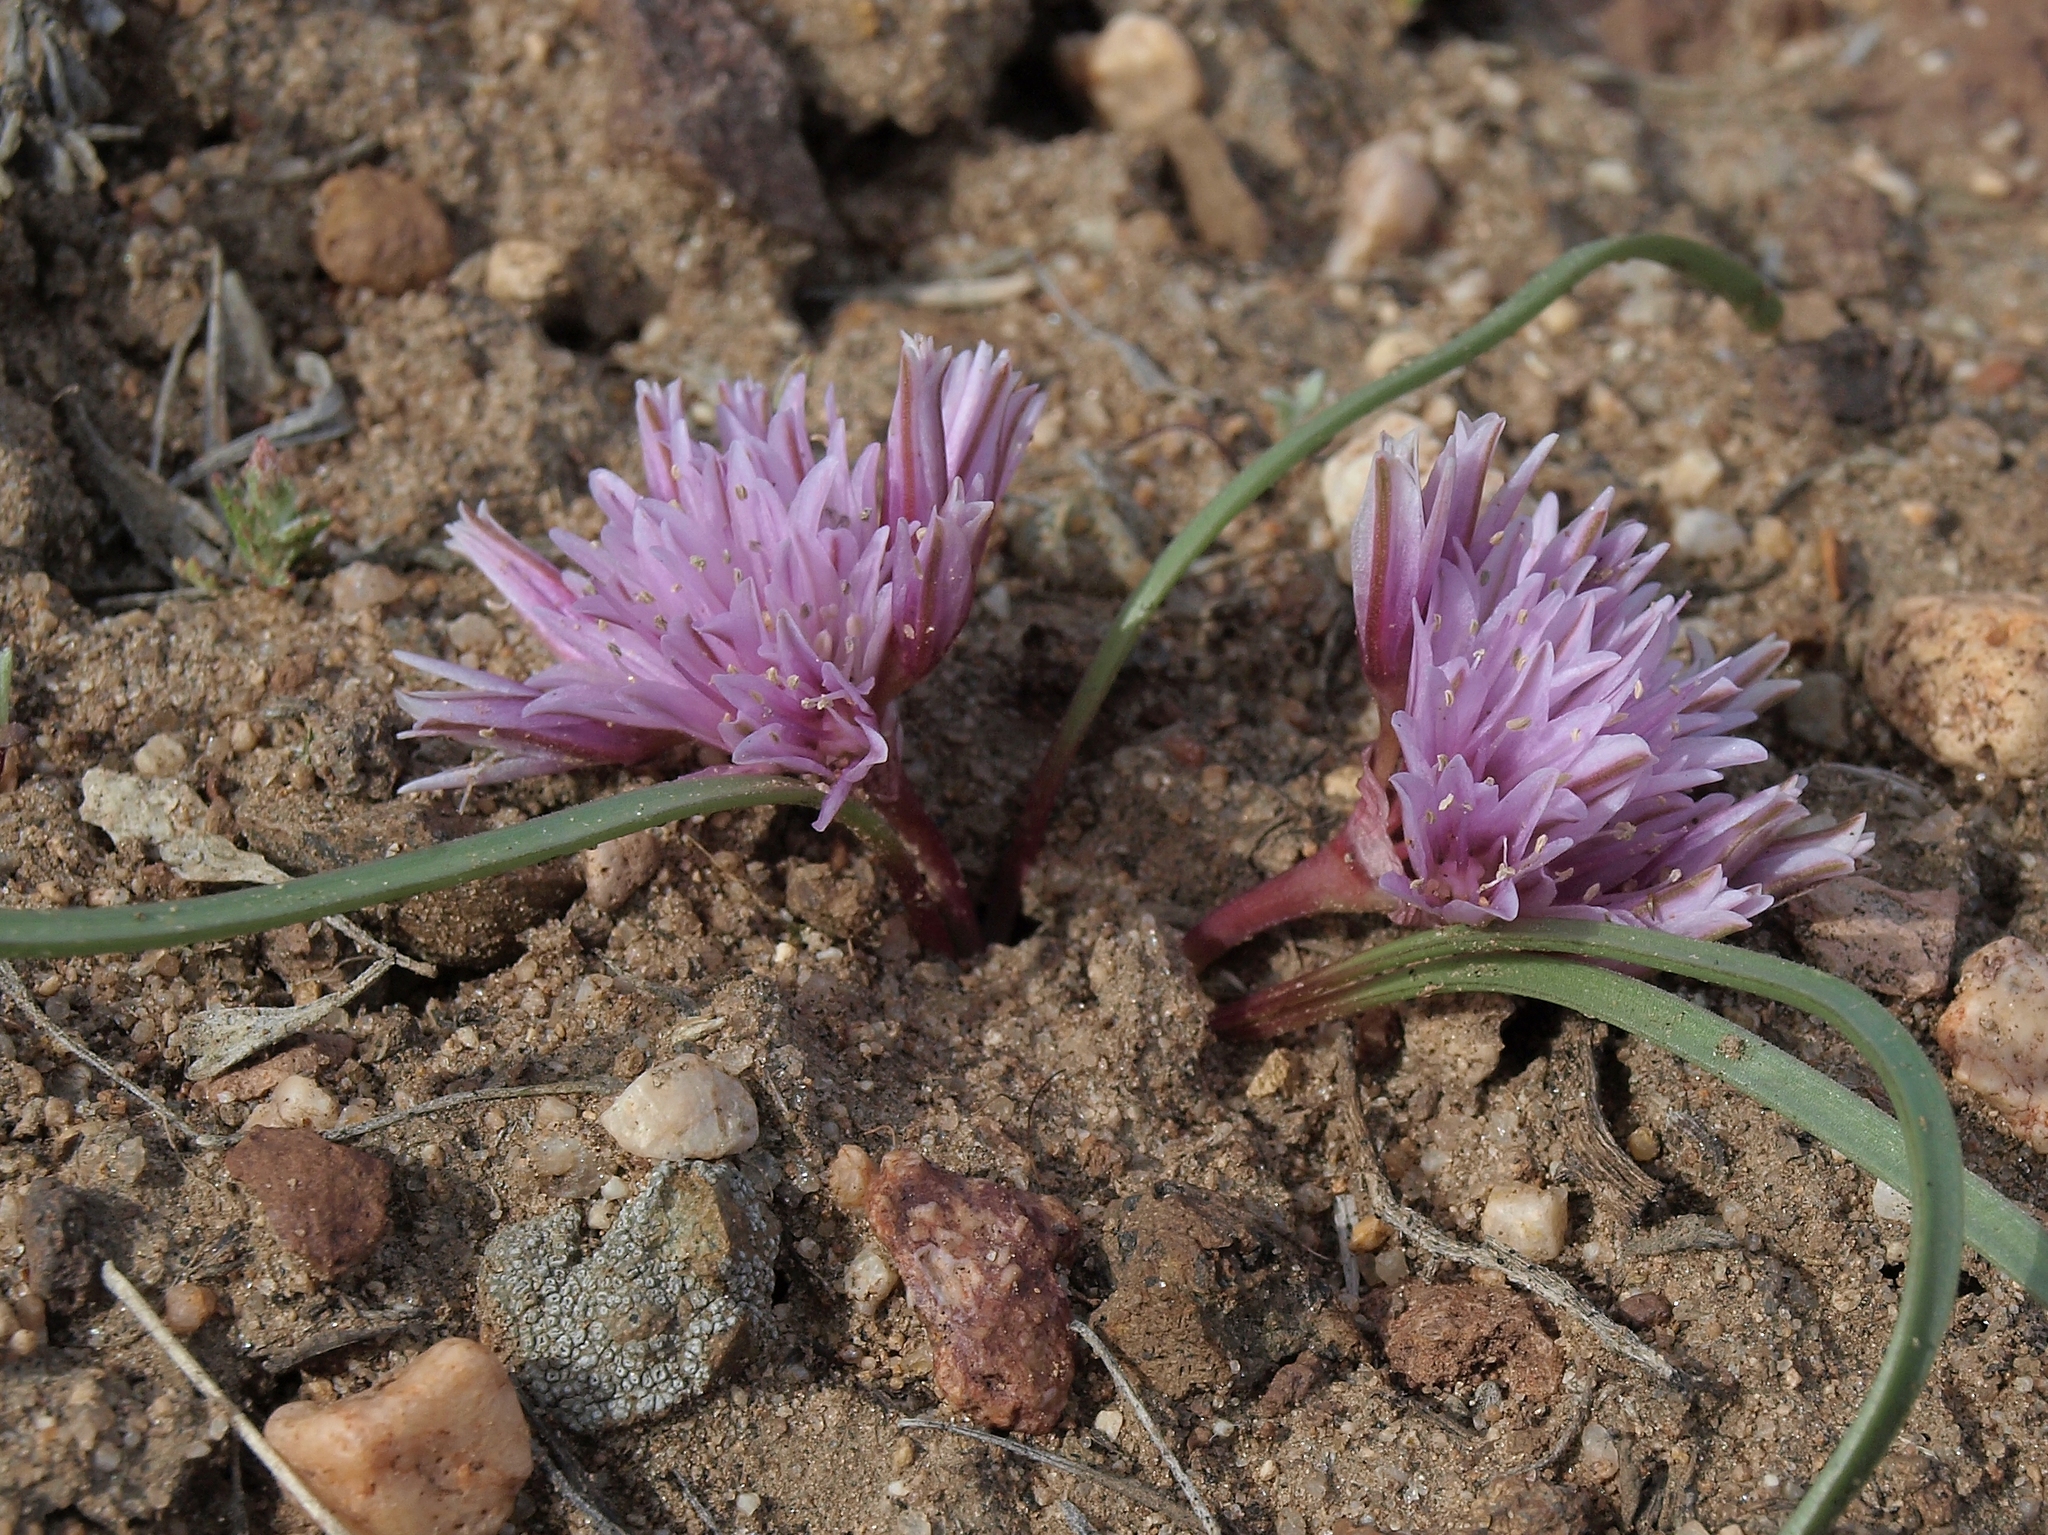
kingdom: Plantae
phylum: Tracheophyta
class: Liliopsida
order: Asparagales
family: Amaryllidaceae
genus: Allium
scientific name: Allium parvum
